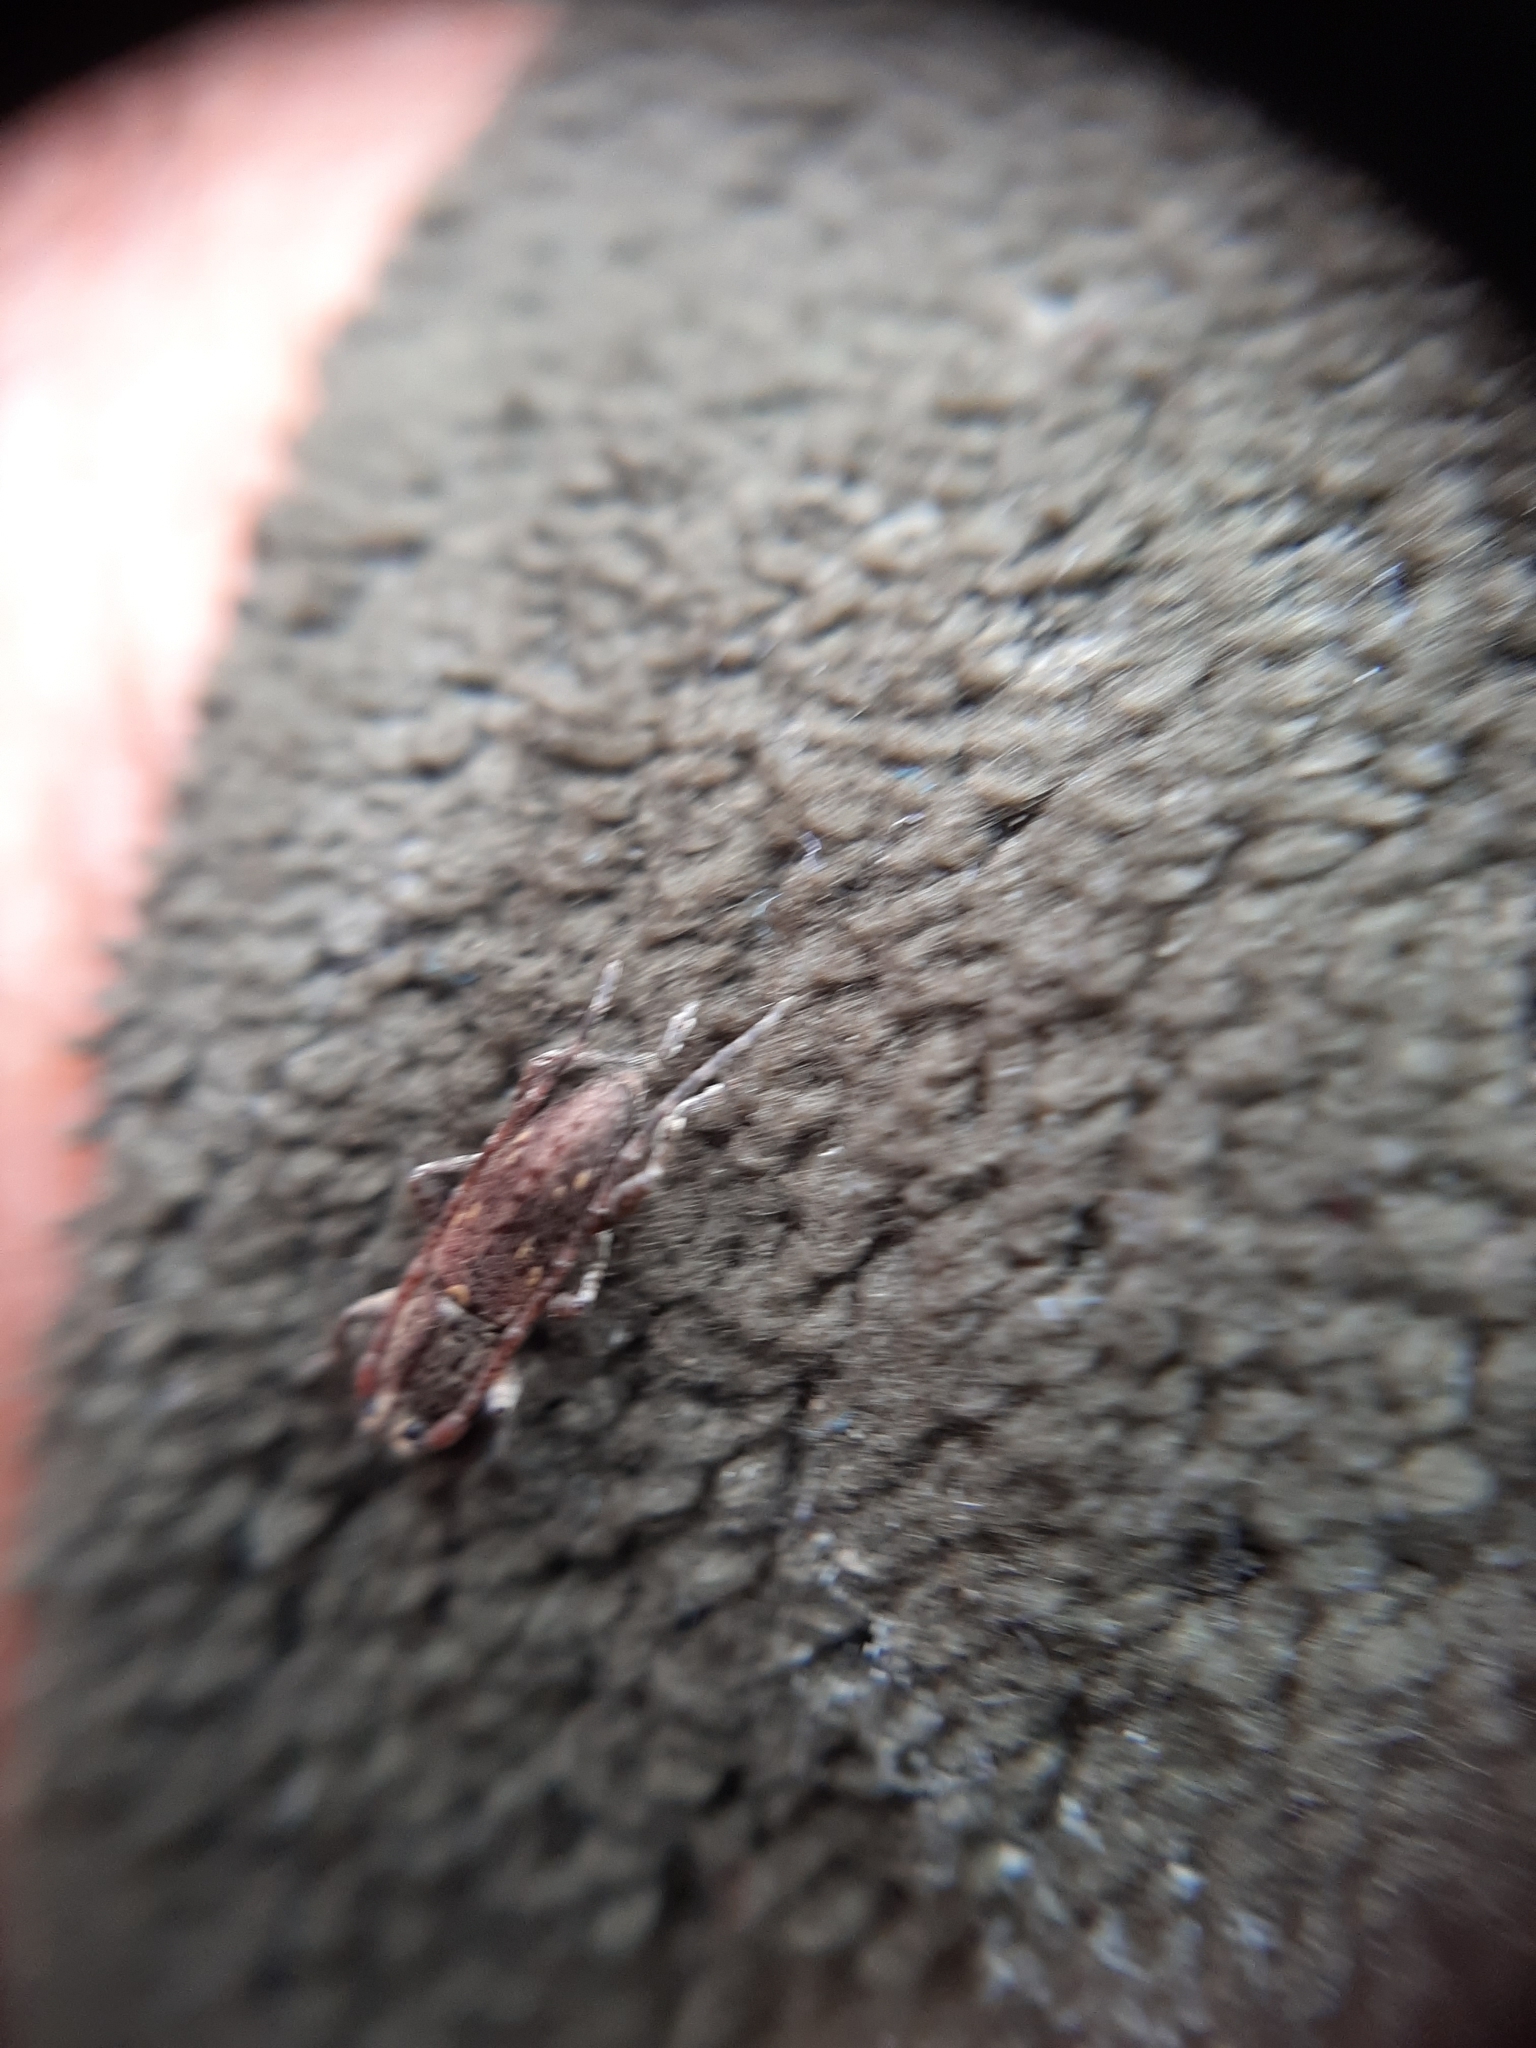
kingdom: Animalia
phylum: Arthropoda
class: Insecta
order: Coleoptera
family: Cerambycidae
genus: Xylotoles
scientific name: Xylotoles griseus
